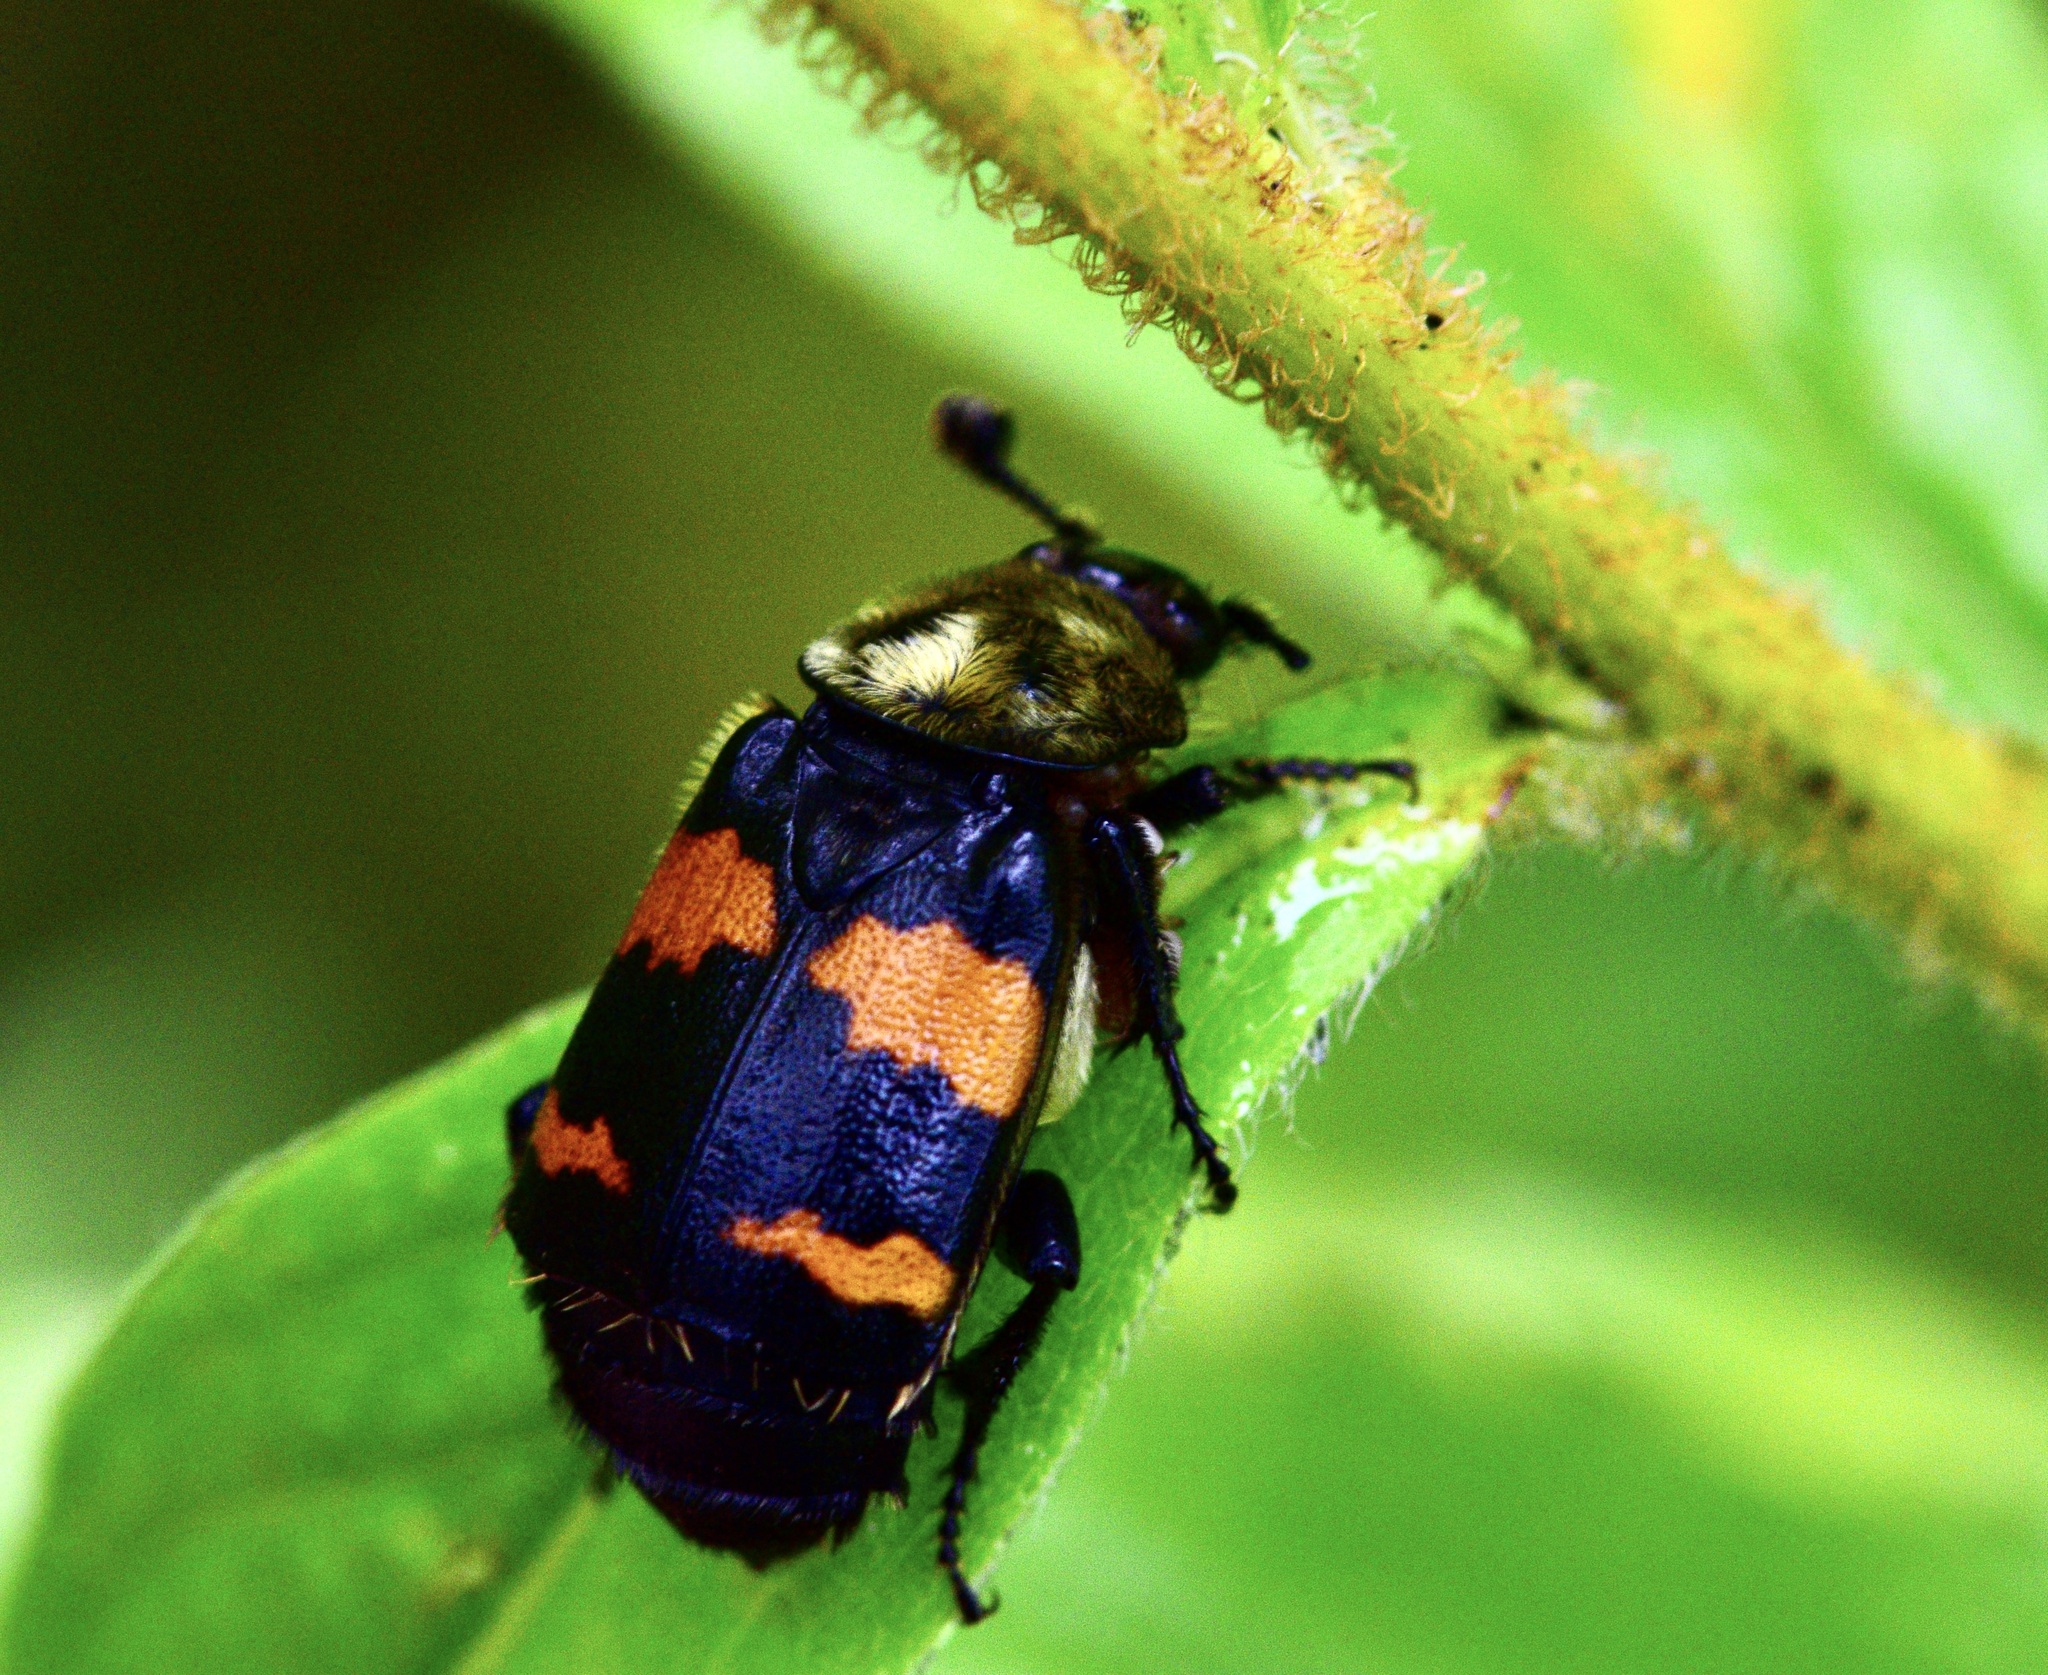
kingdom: Animalia
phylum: Arthropoda
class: Insecta
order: Coleoptera
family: Staphylinidae
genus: Nicrophorus
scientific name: Nicrophorus tomentosus
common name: Tomentose burying beetle
